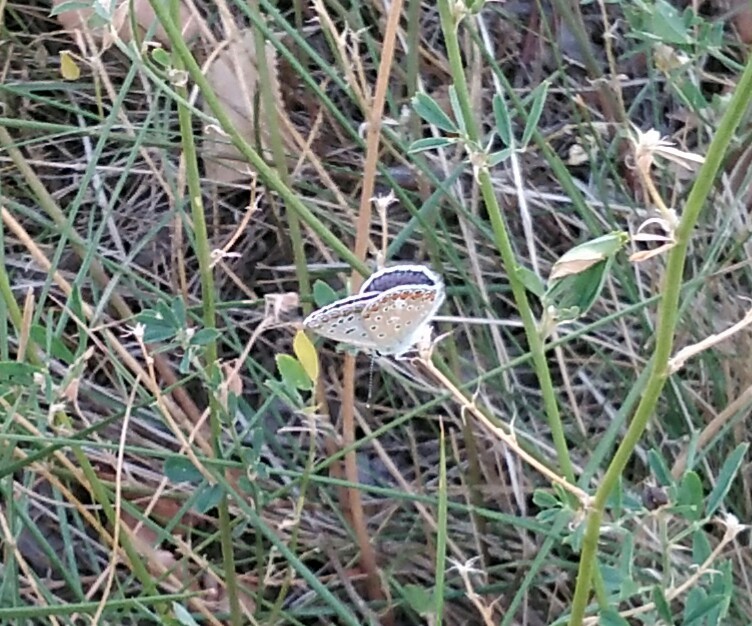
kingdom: Animalia
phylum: Arthropoda
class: Insecta
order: Lepidoptera
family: Lycaenidae
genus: Polyommatus
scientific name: Polyommatus icarus
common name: Common blue
